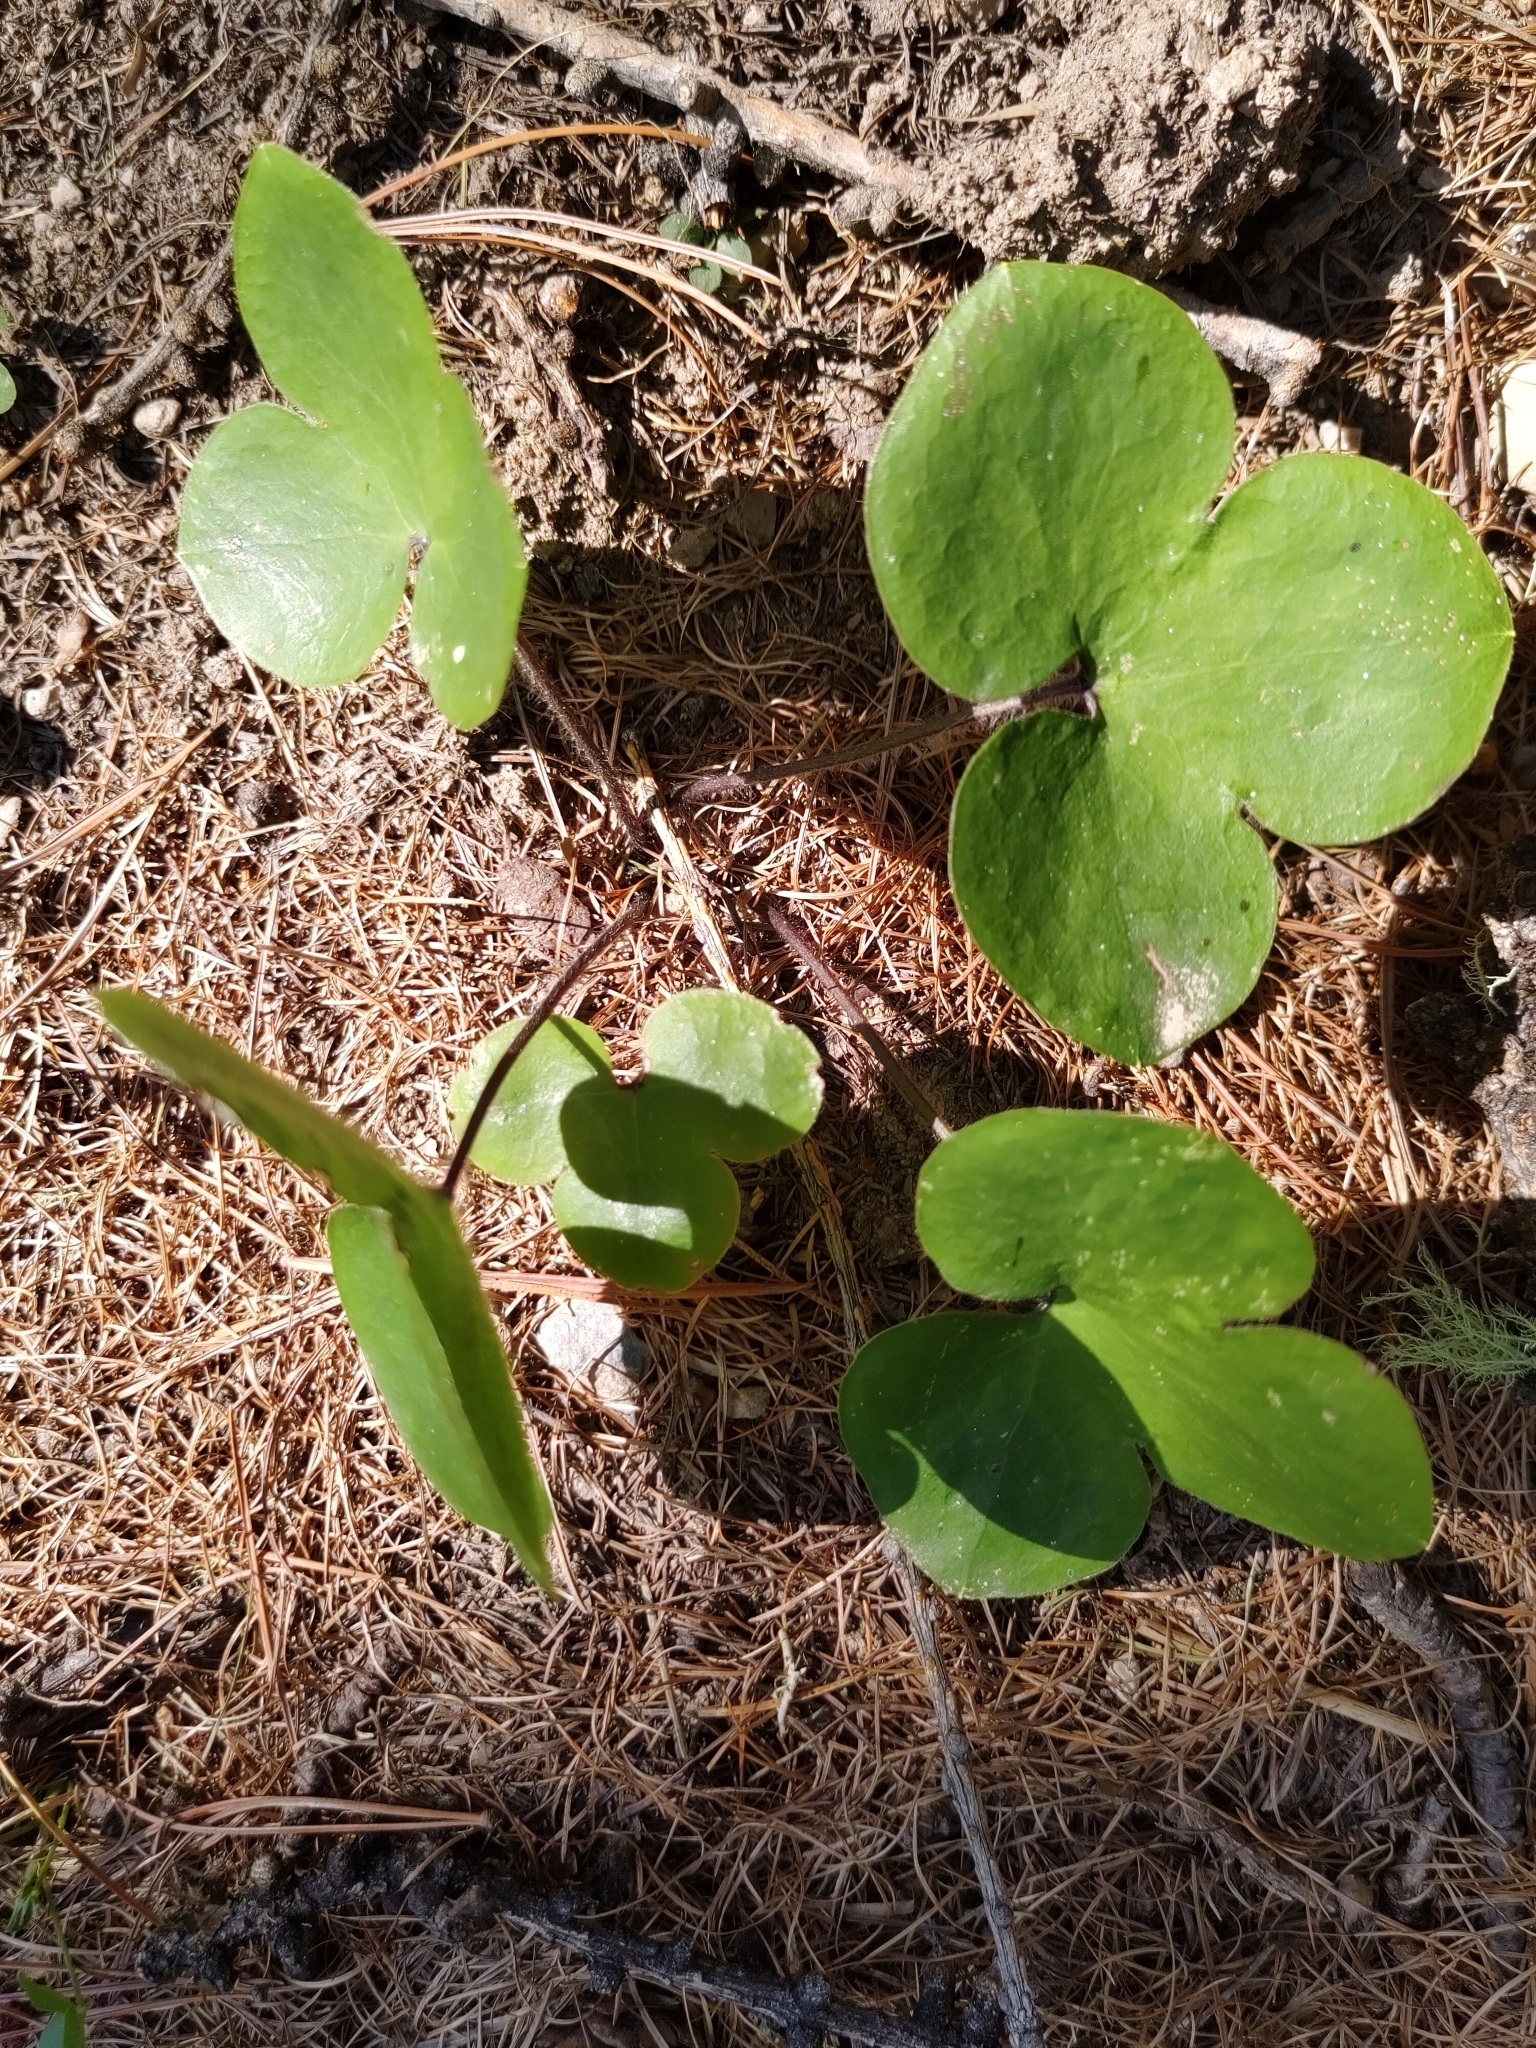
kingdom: Plantae
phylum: Tracheophyta
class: Magnoliopsida
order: Ranunculales
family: Ranunculaceae
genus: Hepatica
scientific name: Hepatica nobilis
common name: Liverleaf
